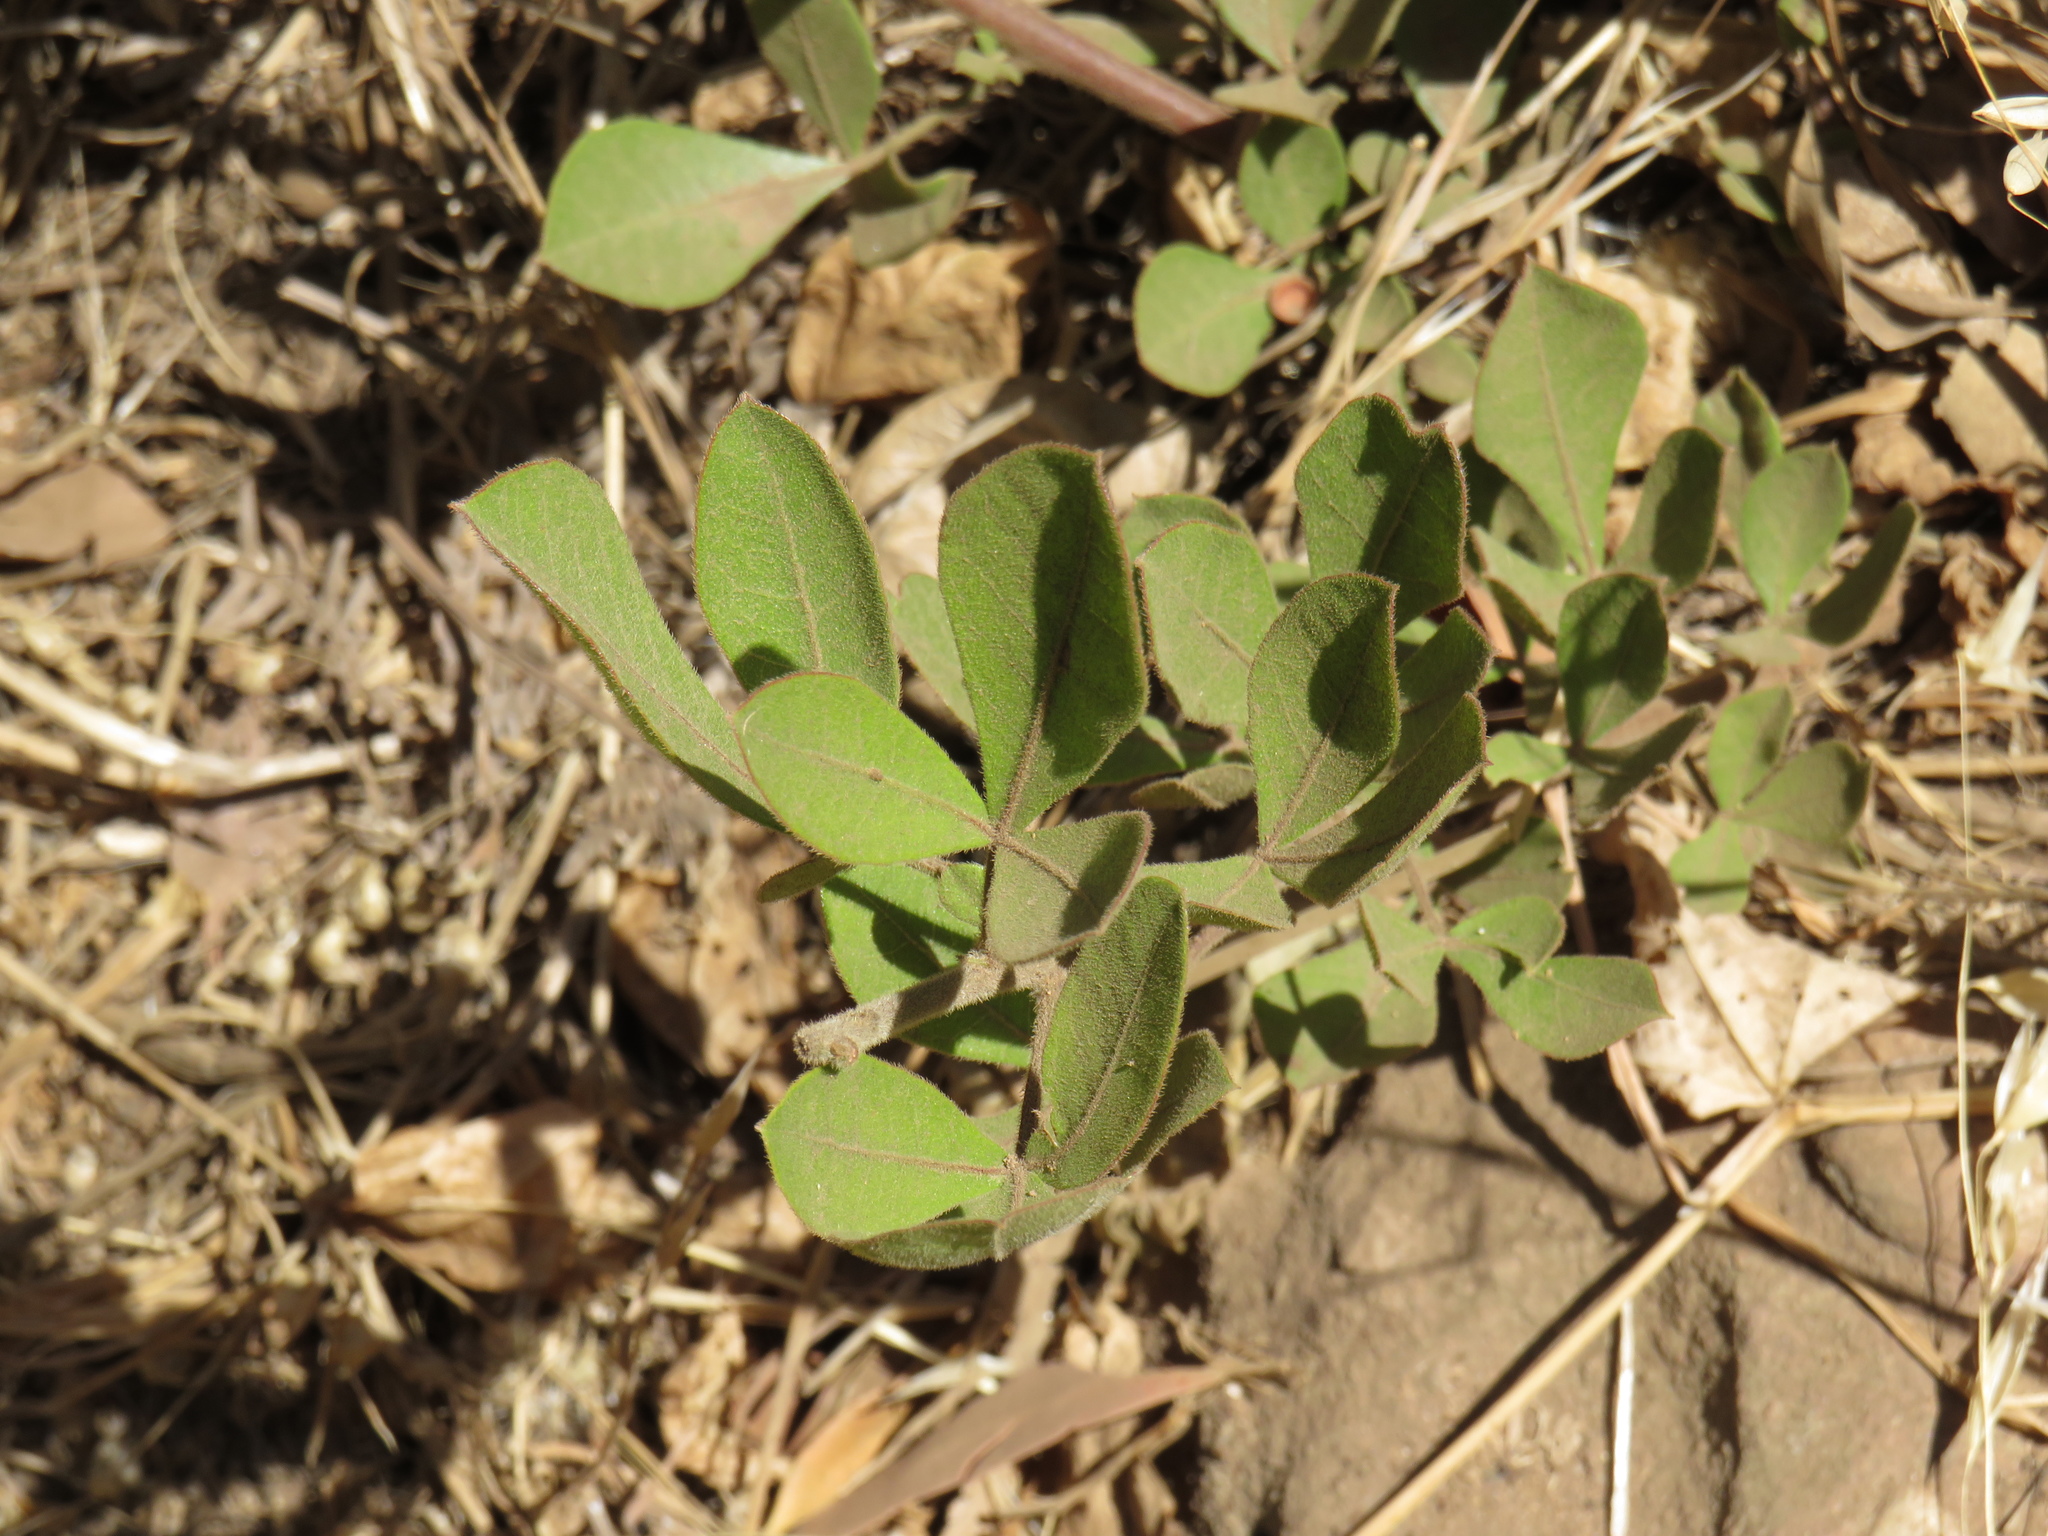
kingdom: Plantae
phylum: Tracheophyta
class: Magnoliopsida
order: Sapindales
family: Anacardiaceae
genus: Searsia
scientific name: Searsia laevigata
